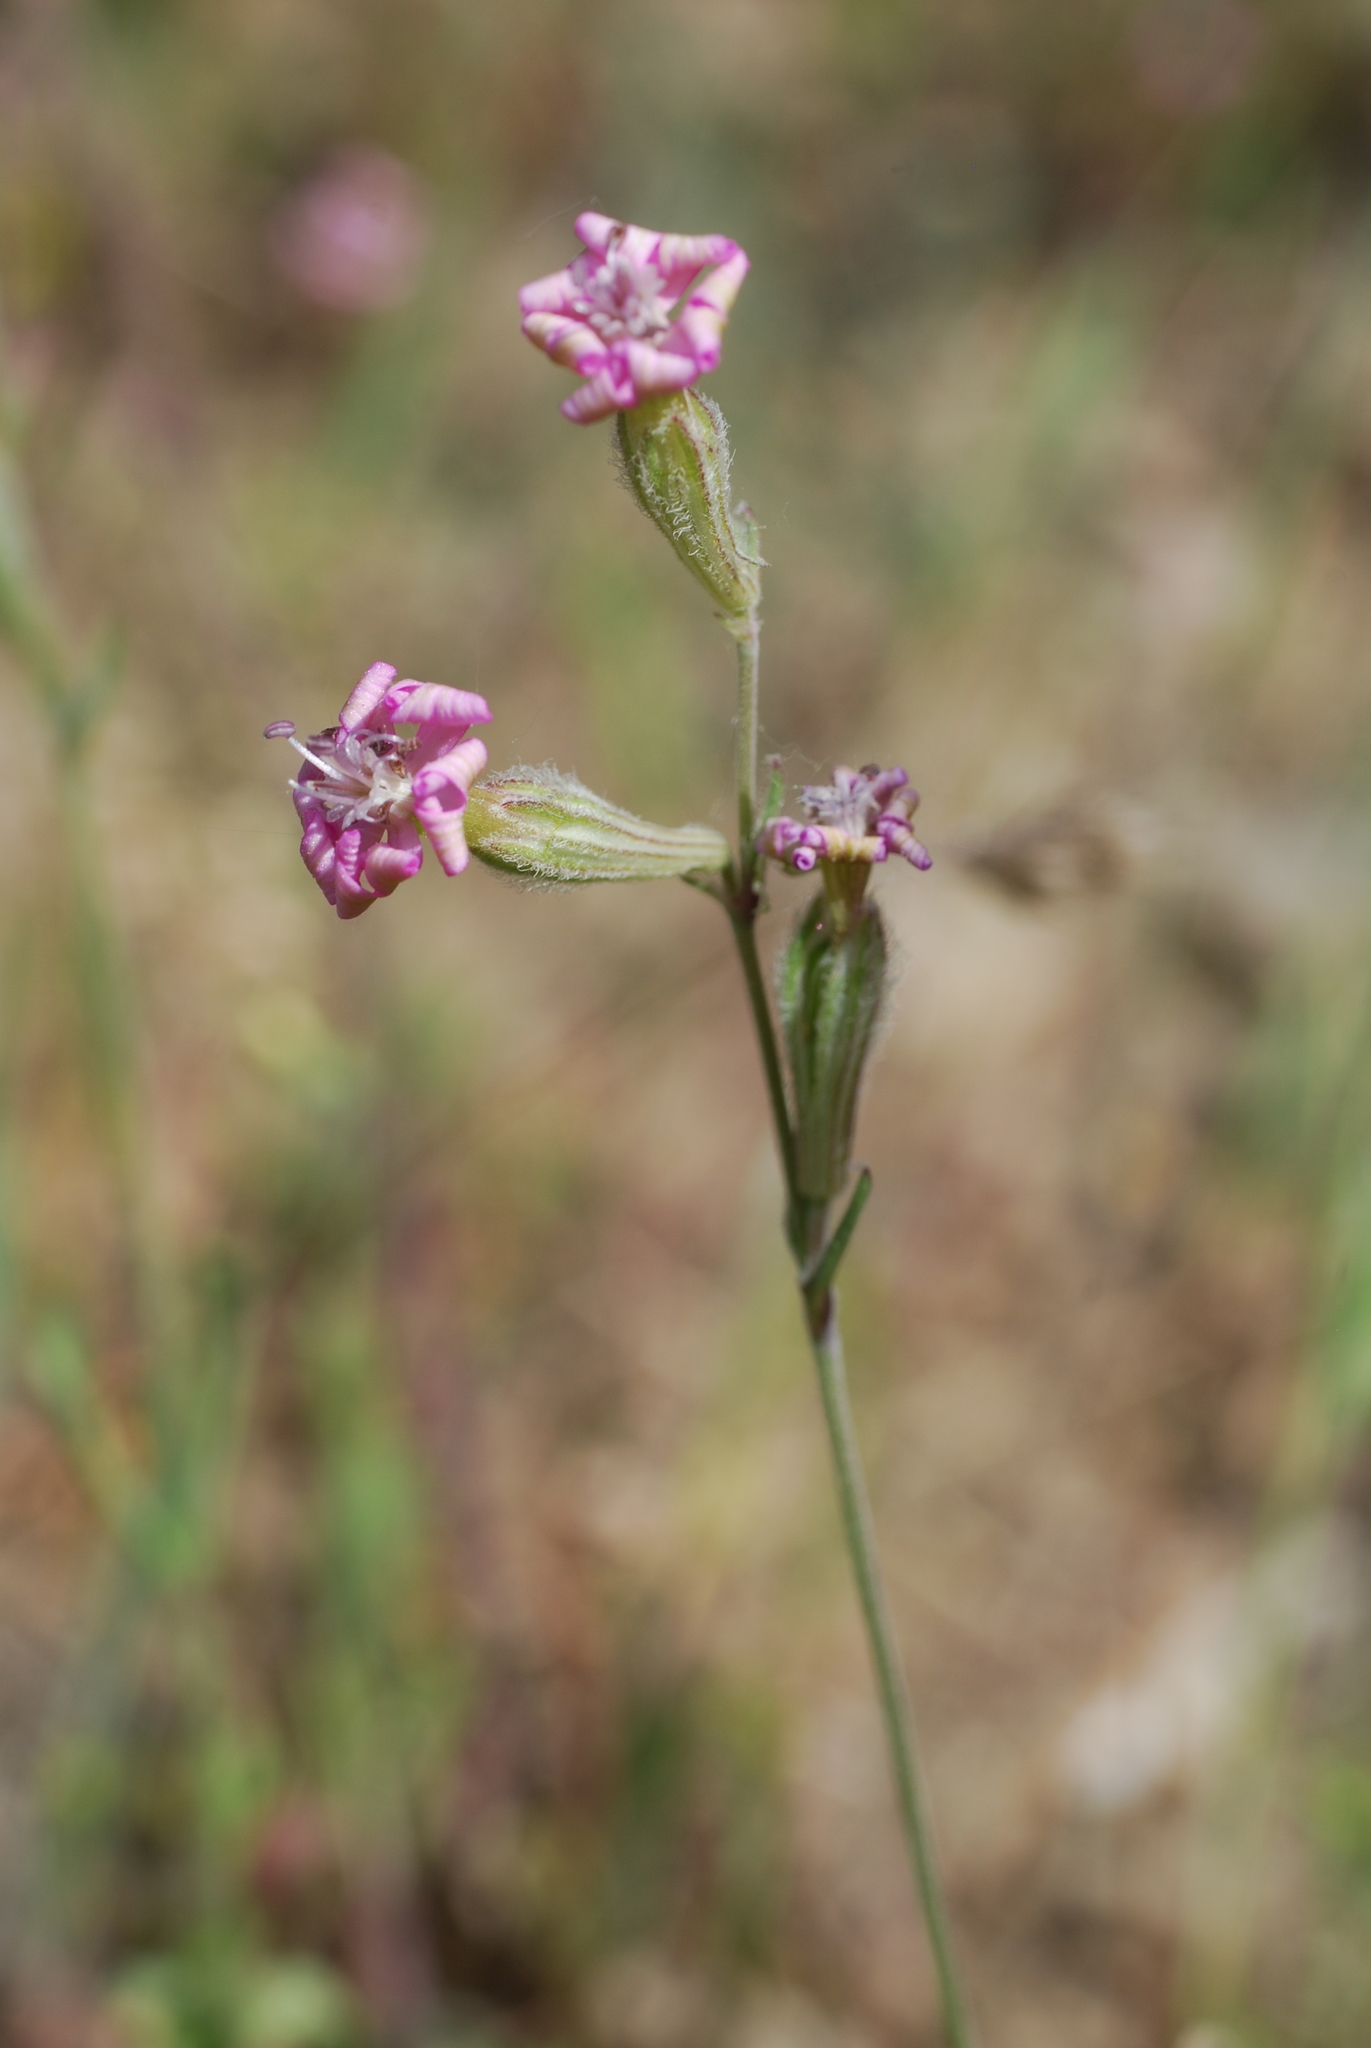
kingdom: Plantae
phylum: Tracheophyta
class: Magnoliopsida
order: Caryophyllales
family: Caryophyllaceae
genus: Silene
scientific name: Silene colorata
